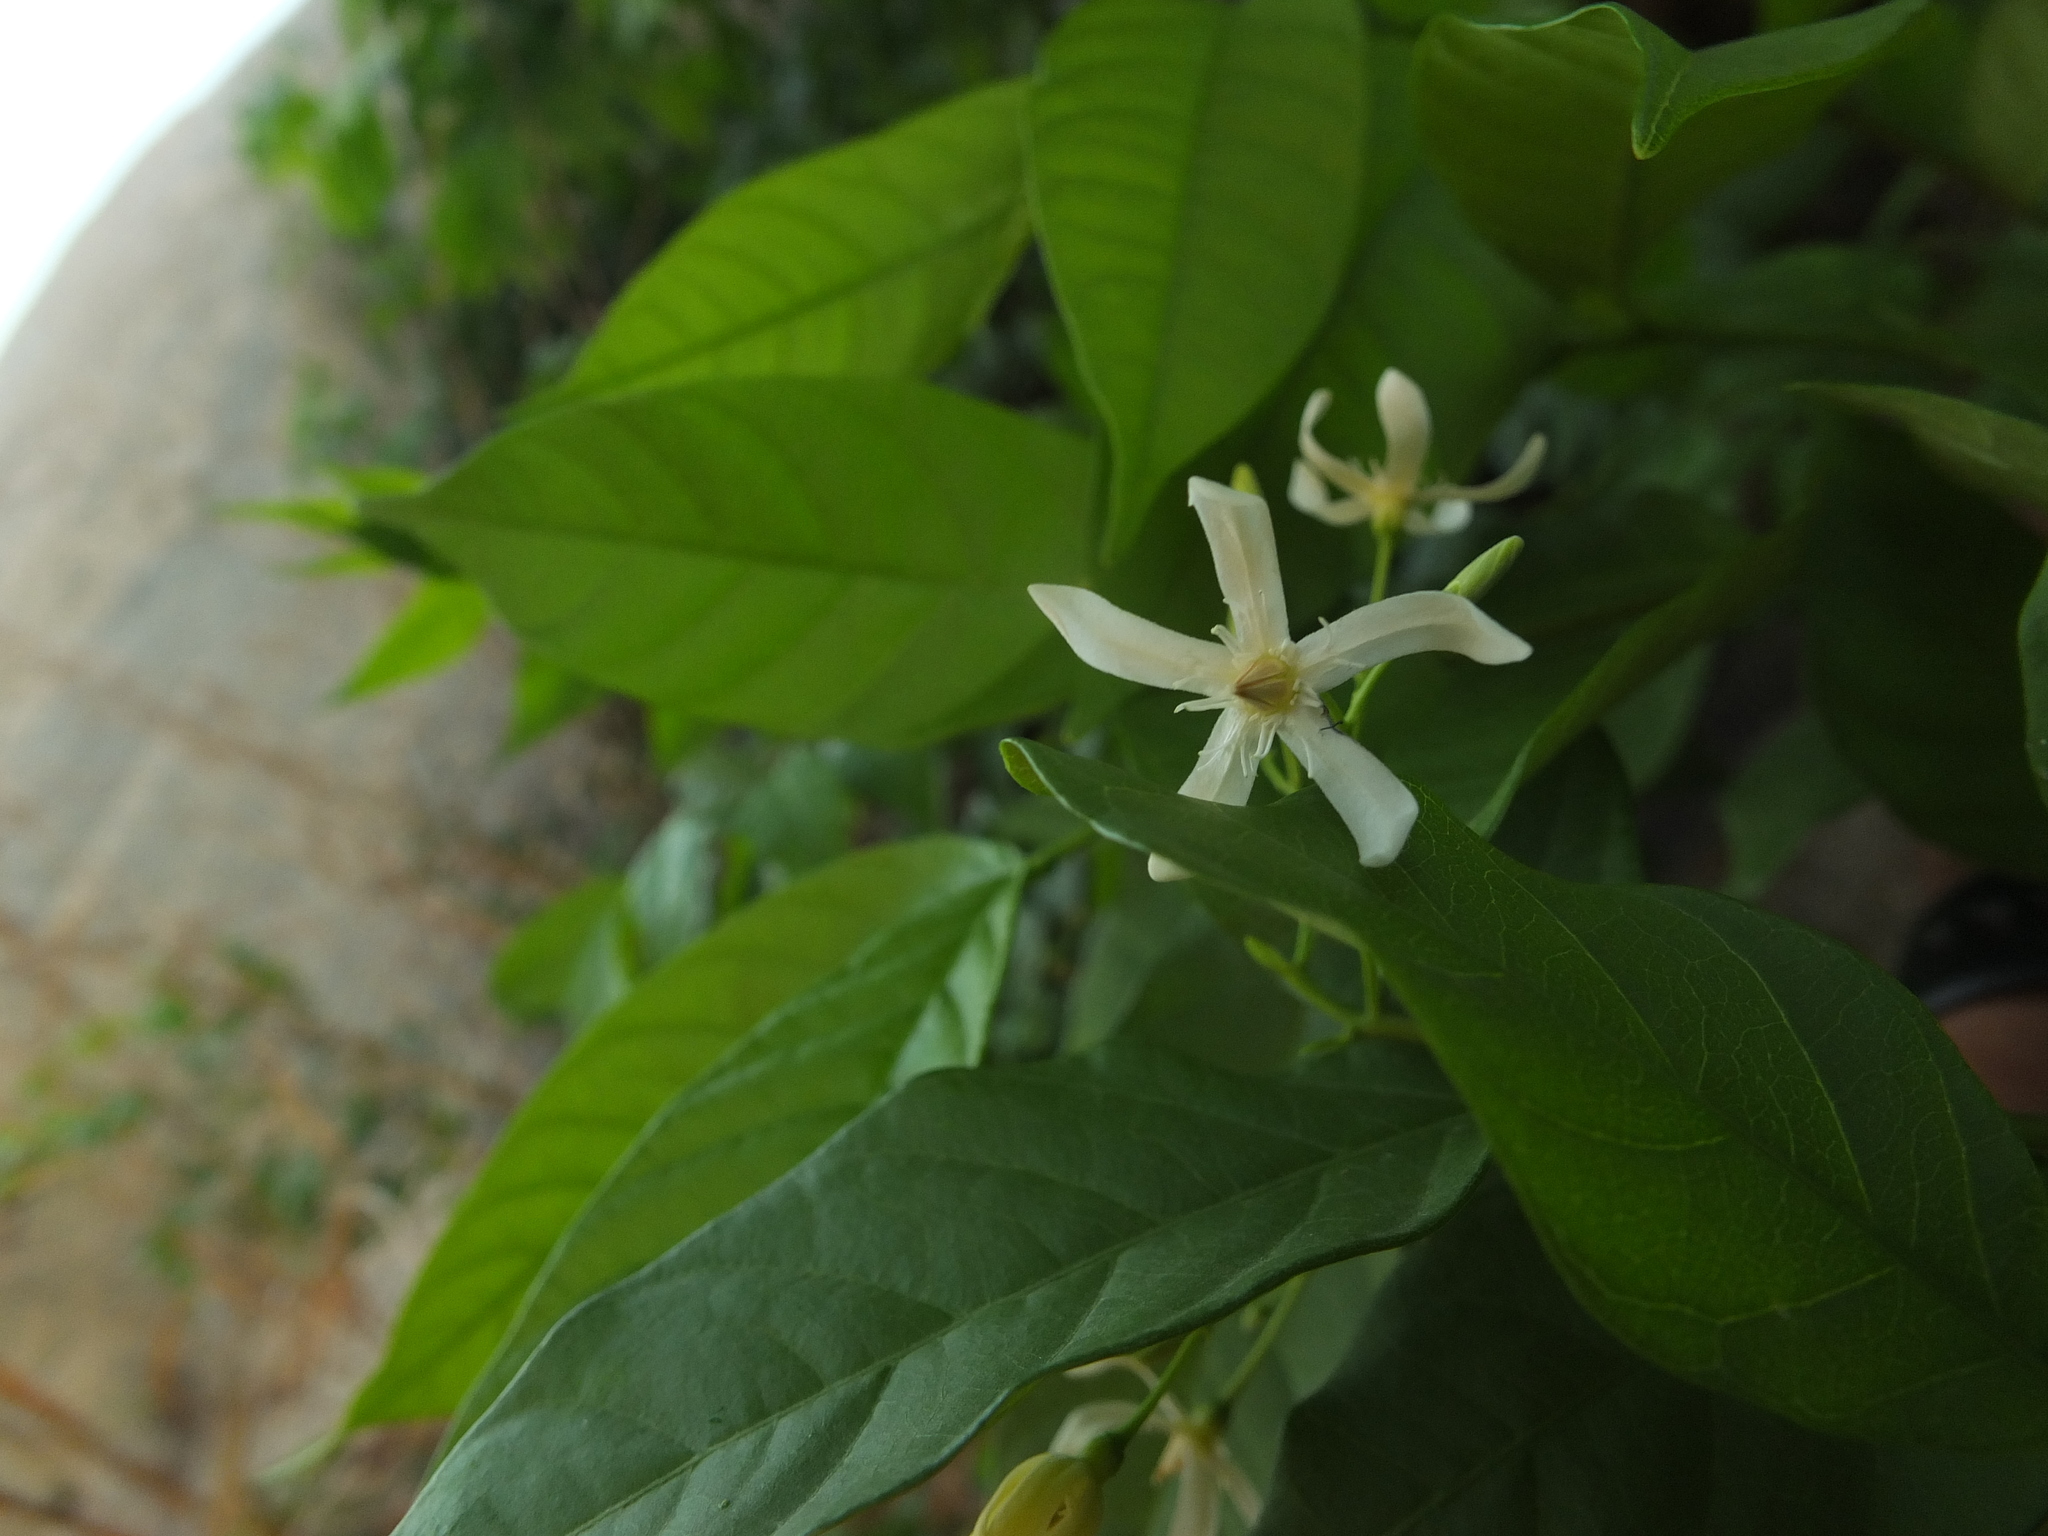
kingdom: Plantae
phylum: Tracheophyta
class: Magnoliopsida
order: Gentianales
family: Apocynaceae
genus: Wrightia
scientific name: Wrightia tinctoria
